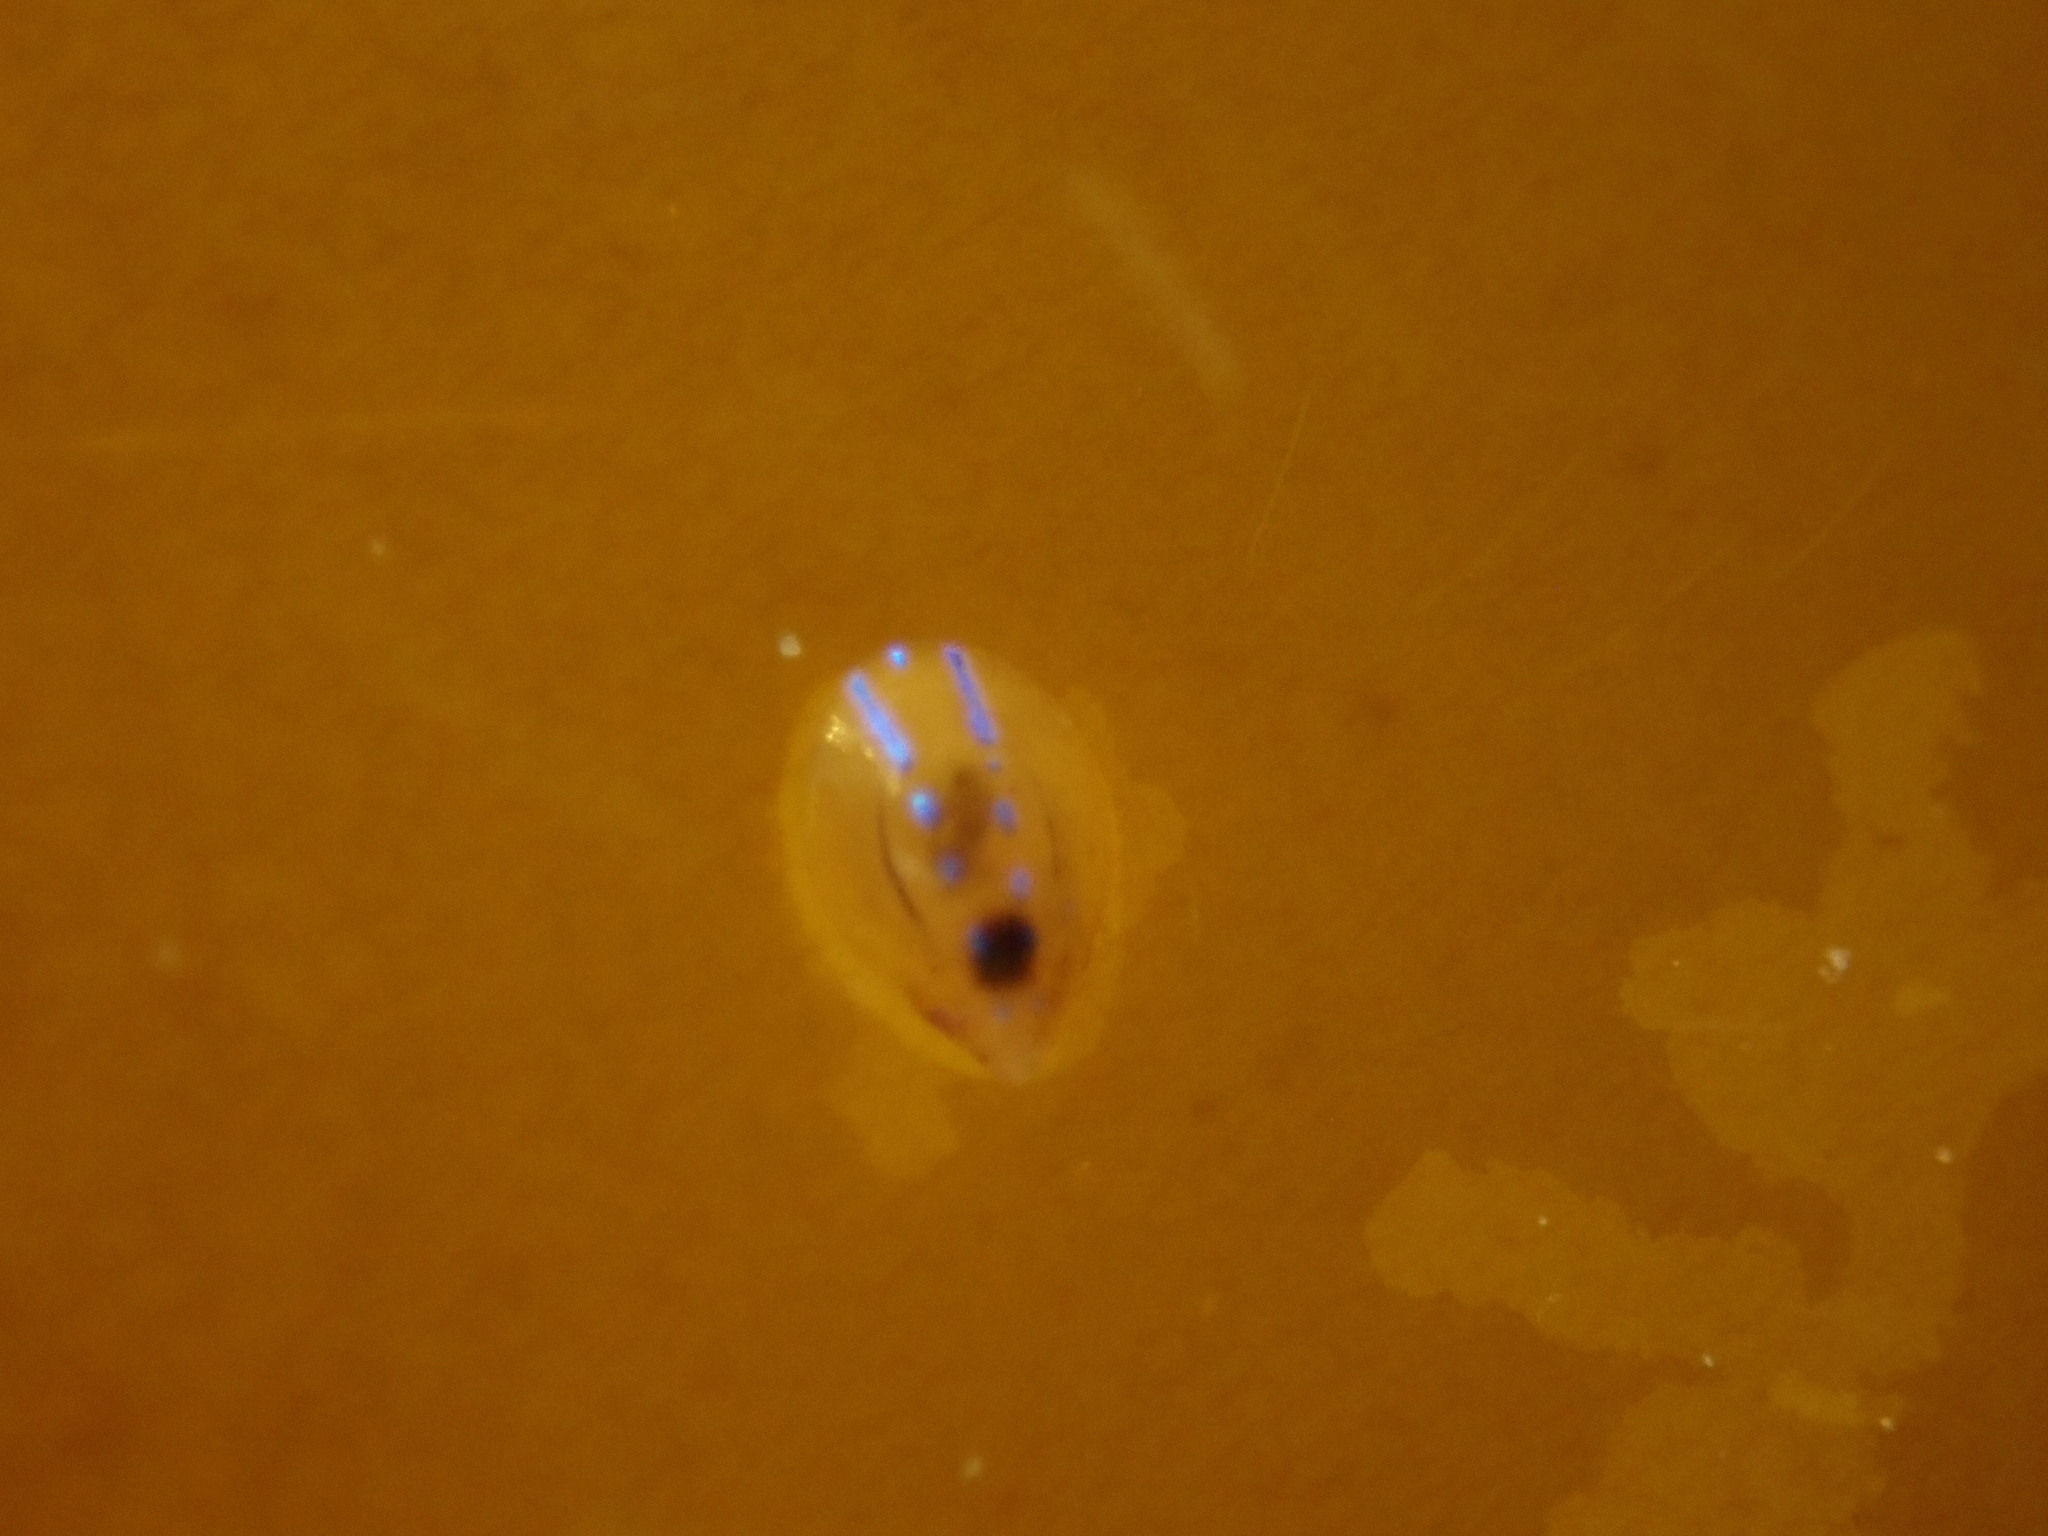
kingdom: Animalia
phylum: Mollusca
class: Gastropoda
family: Patellidae
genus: Patella
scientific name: Patella pellucida
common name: Blue-rayed limpet
